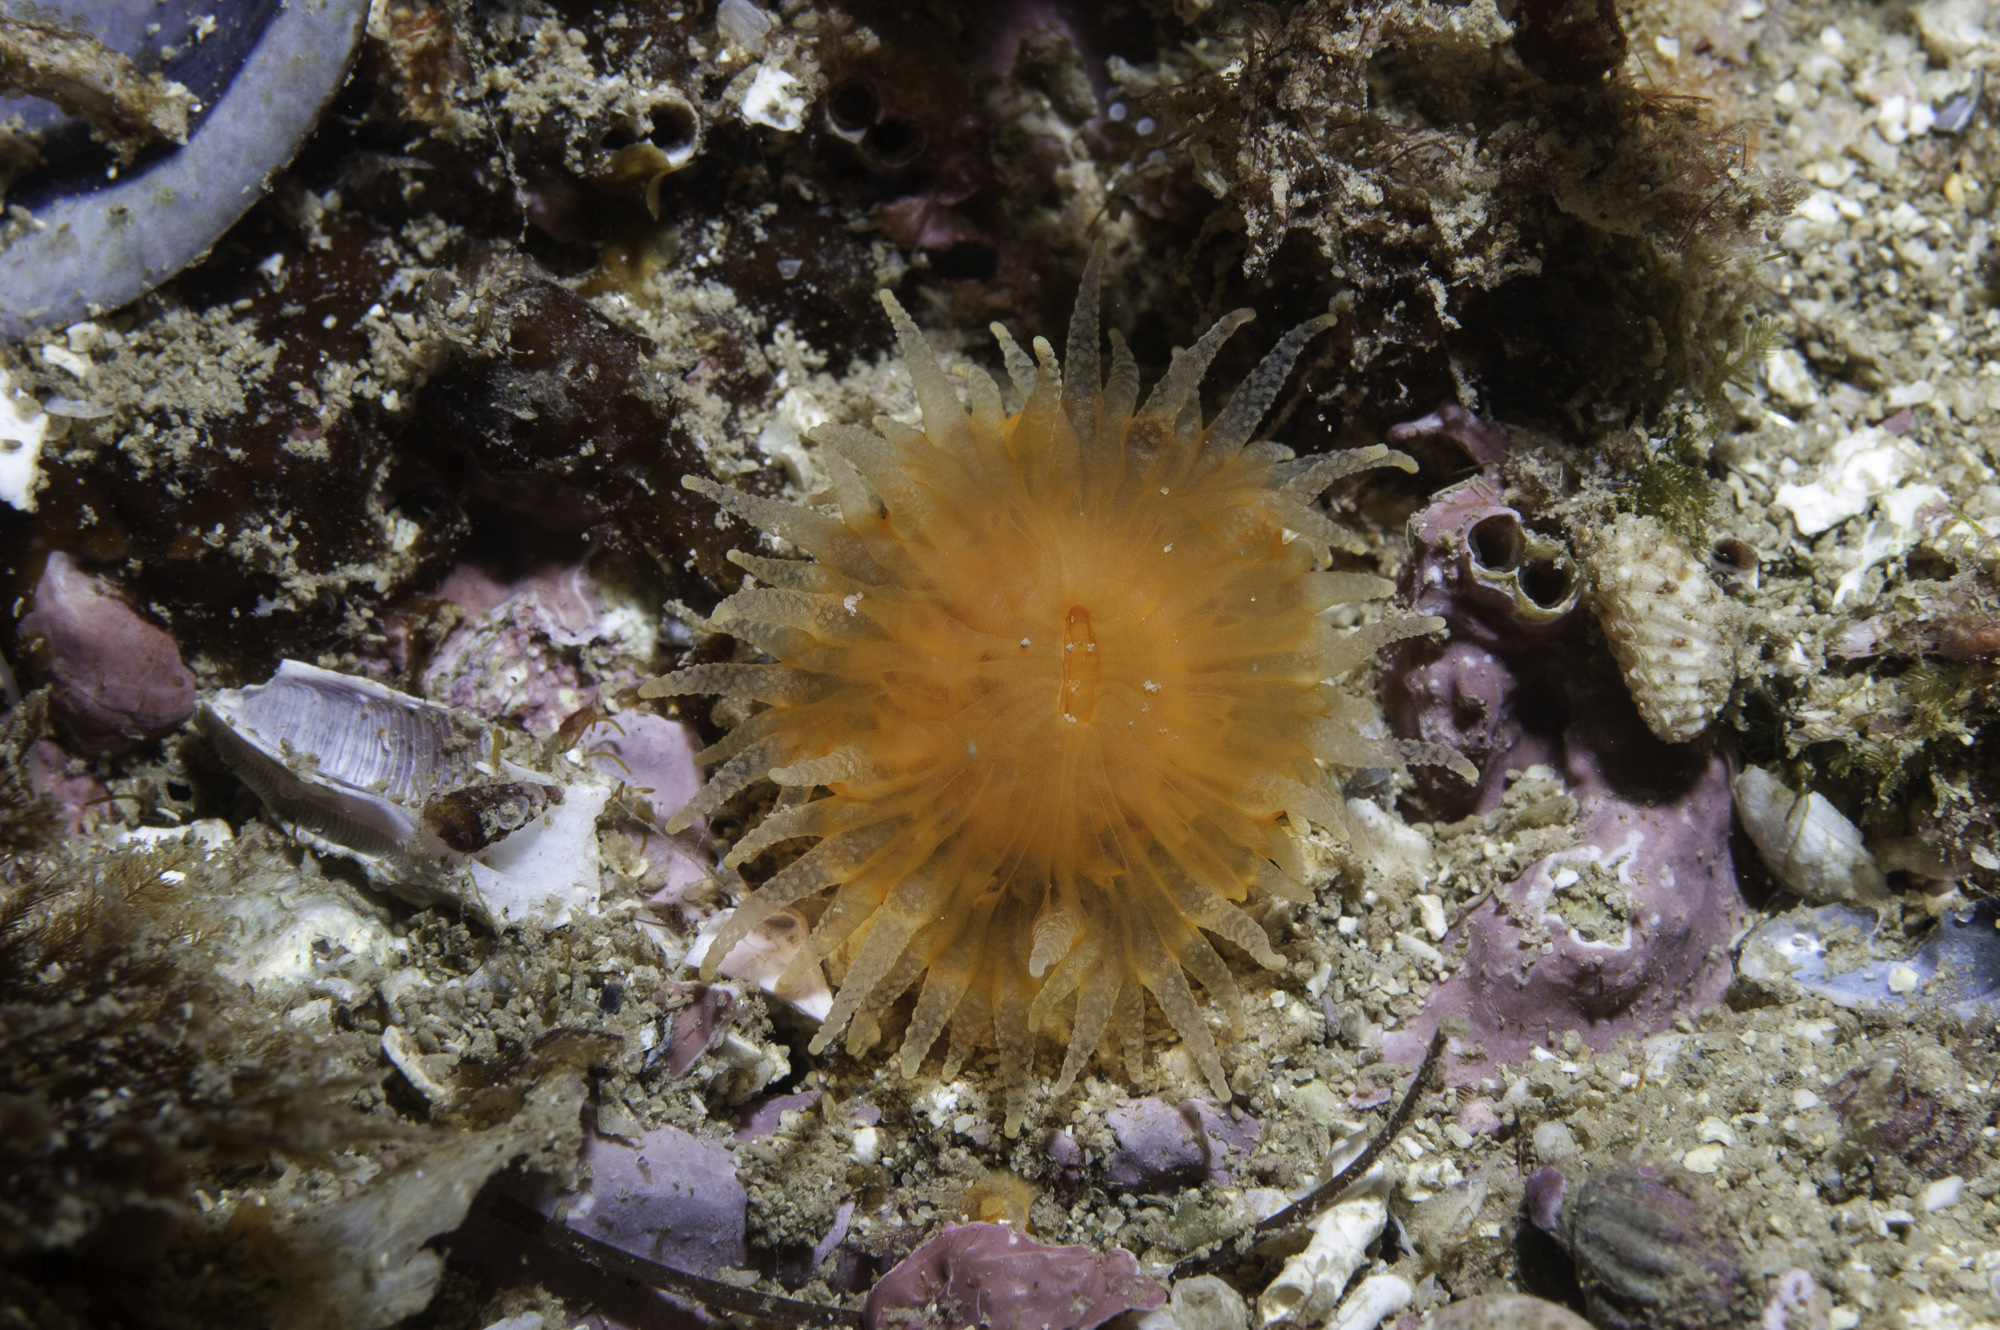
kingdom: Animalia
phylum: Cnidaria
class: Anthozoa
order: Scleractinia
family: Dendrophylliidae
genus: Balanophyllia
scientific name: Balanophyllia regia
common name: Golden star coral
